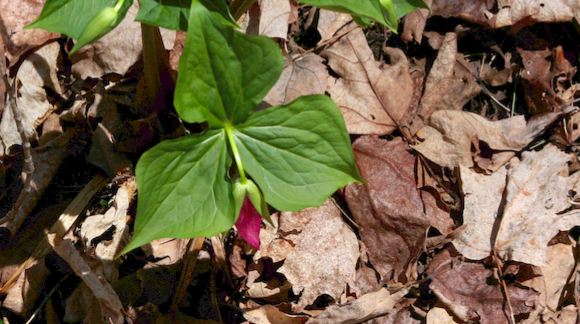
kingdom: Plantae
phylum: Tracheophyta
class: Liliopsida
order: Liliales
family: Melanthiaceae
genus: Trillium
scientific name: Trillium erectum
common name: Purple trillium
